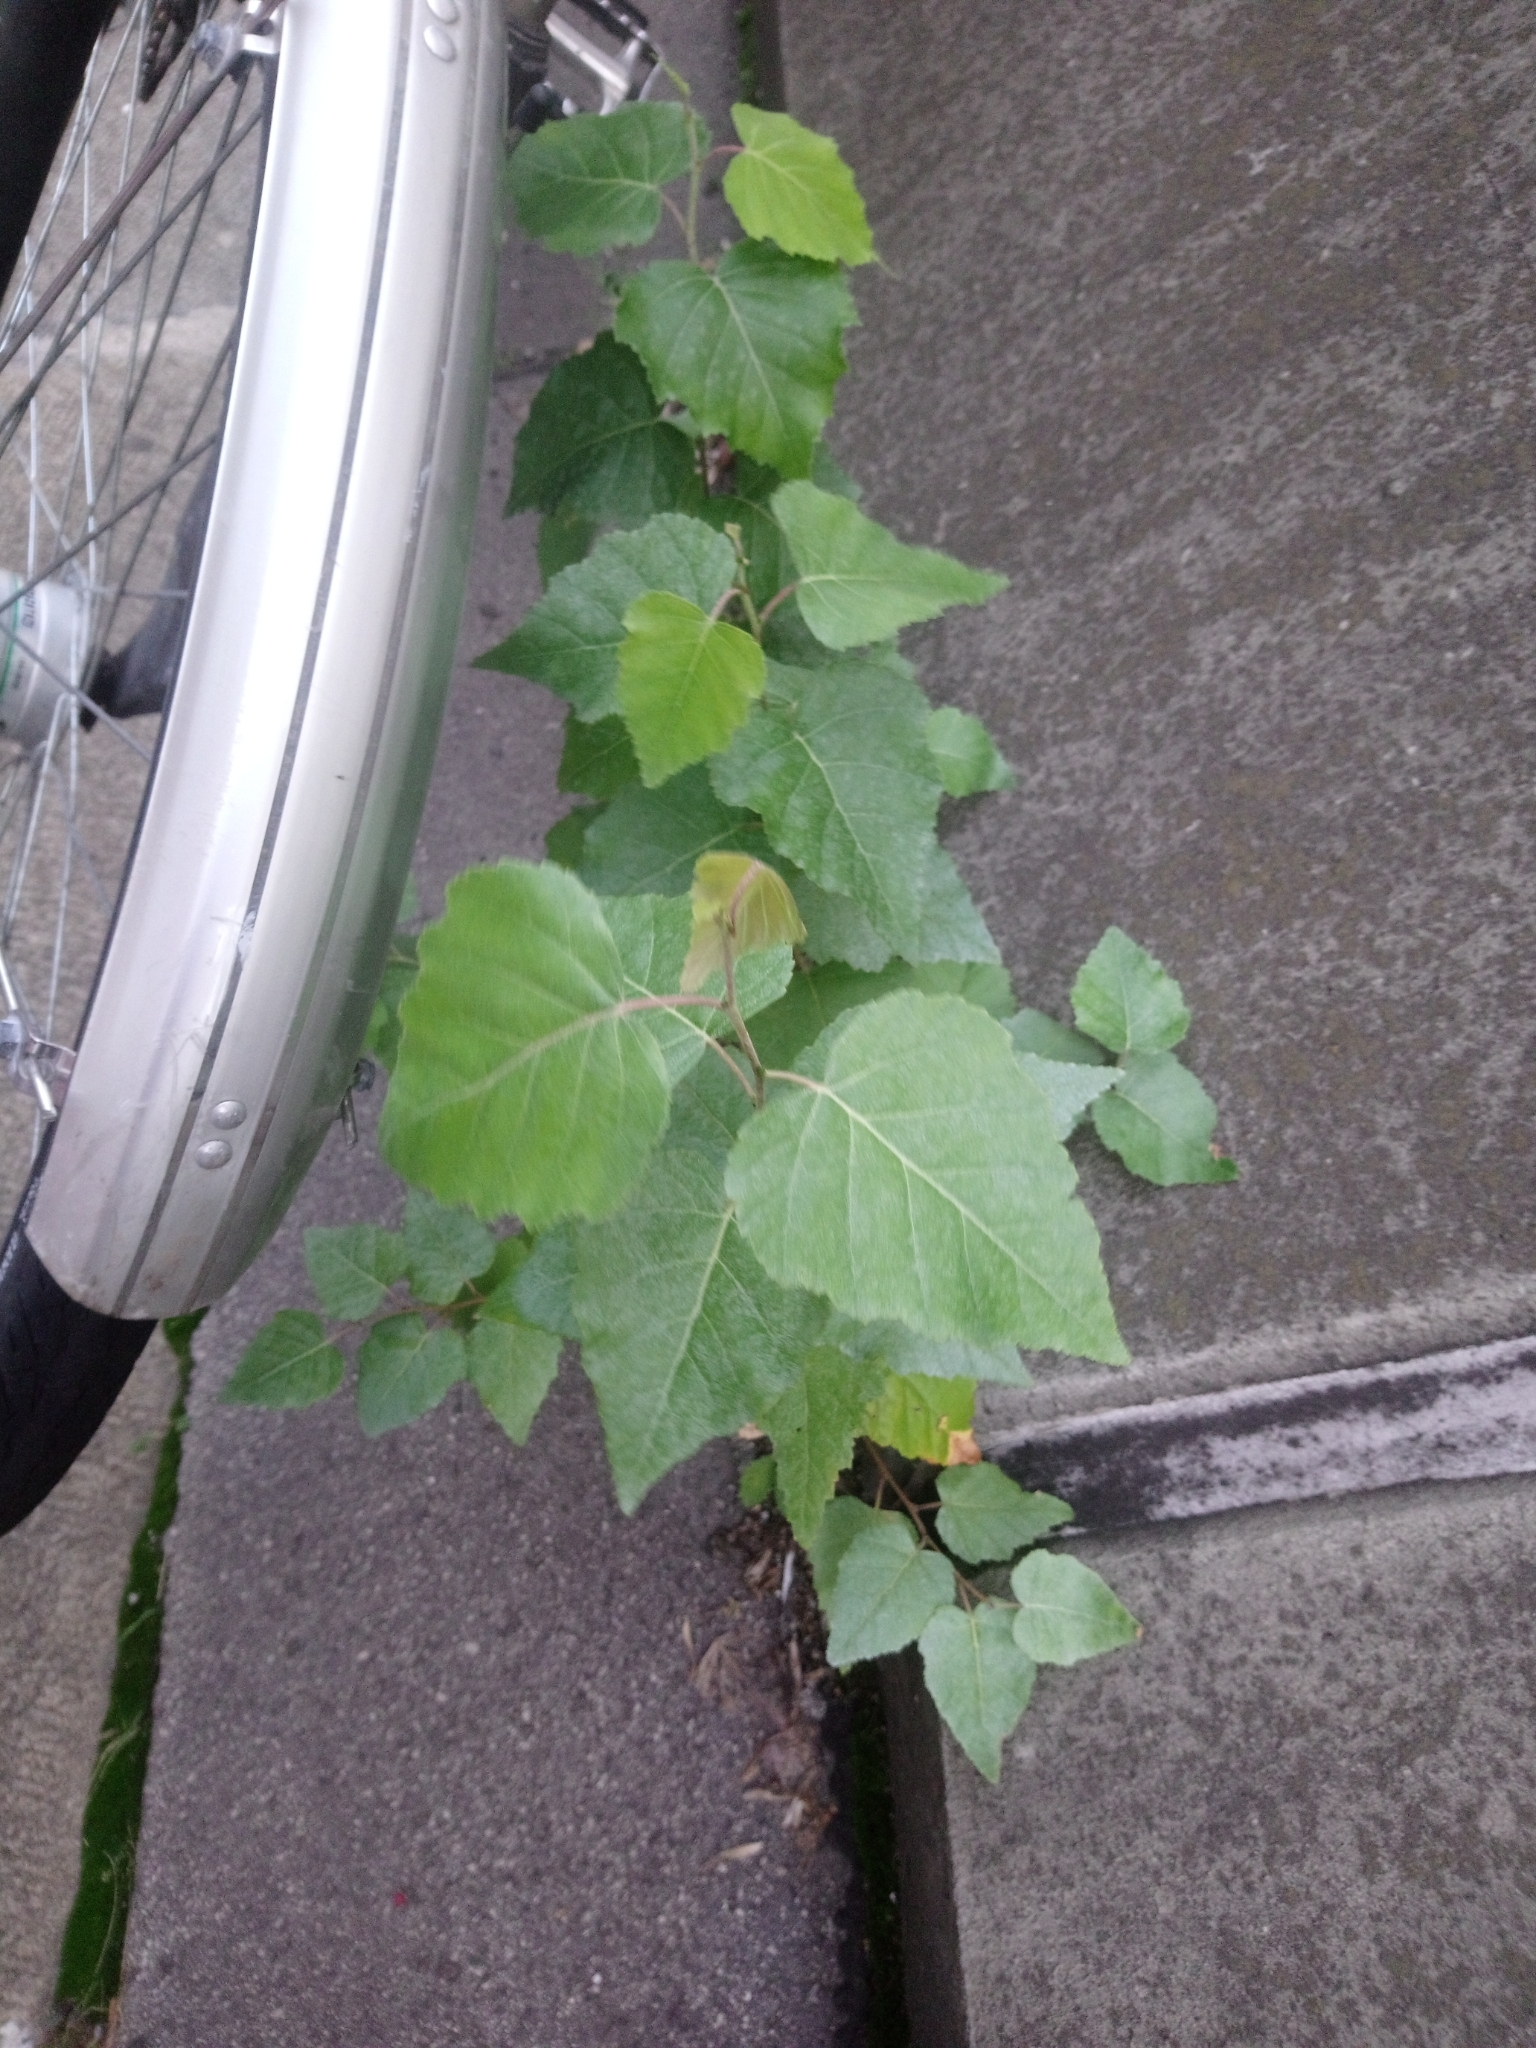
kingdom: Plantae
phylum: Tracheophyta
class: Magnoliopsida
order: Fagales
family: Betulaceae
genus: Betula
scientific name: Betula pendula
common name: Silver birch
